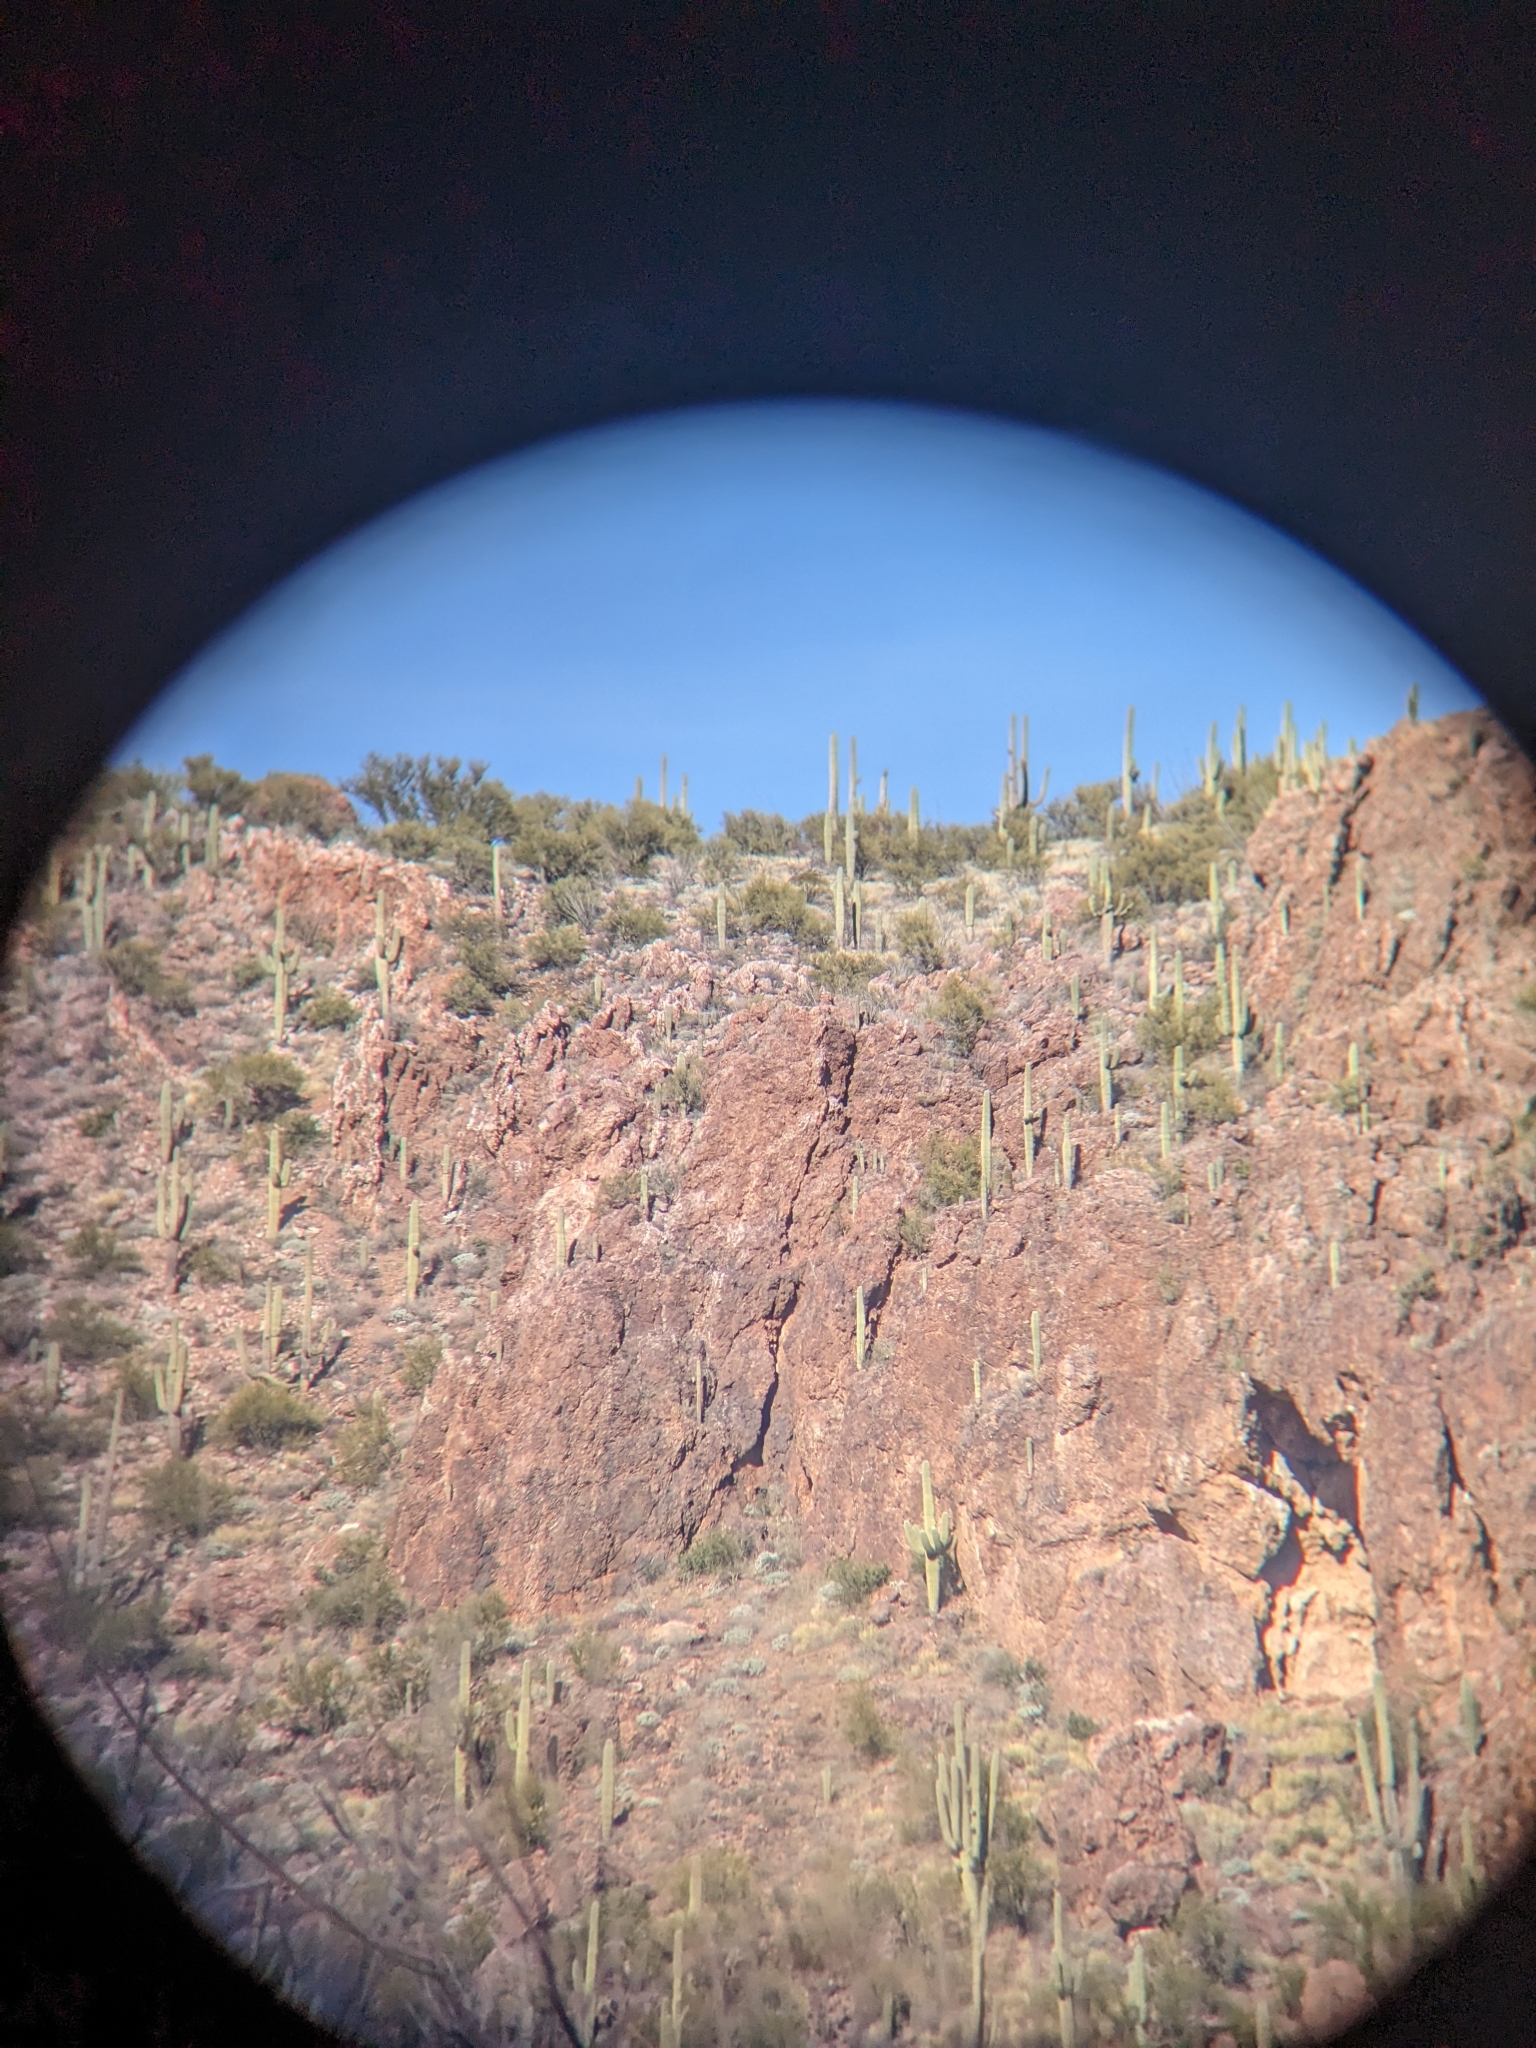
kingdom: Plantae
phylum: Tracheophyta
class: Magnoliopsida
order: Caryophyllales
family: Cactaceae
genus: Carnegiea
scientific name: Carnegiea gigantea
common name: Saguaro
